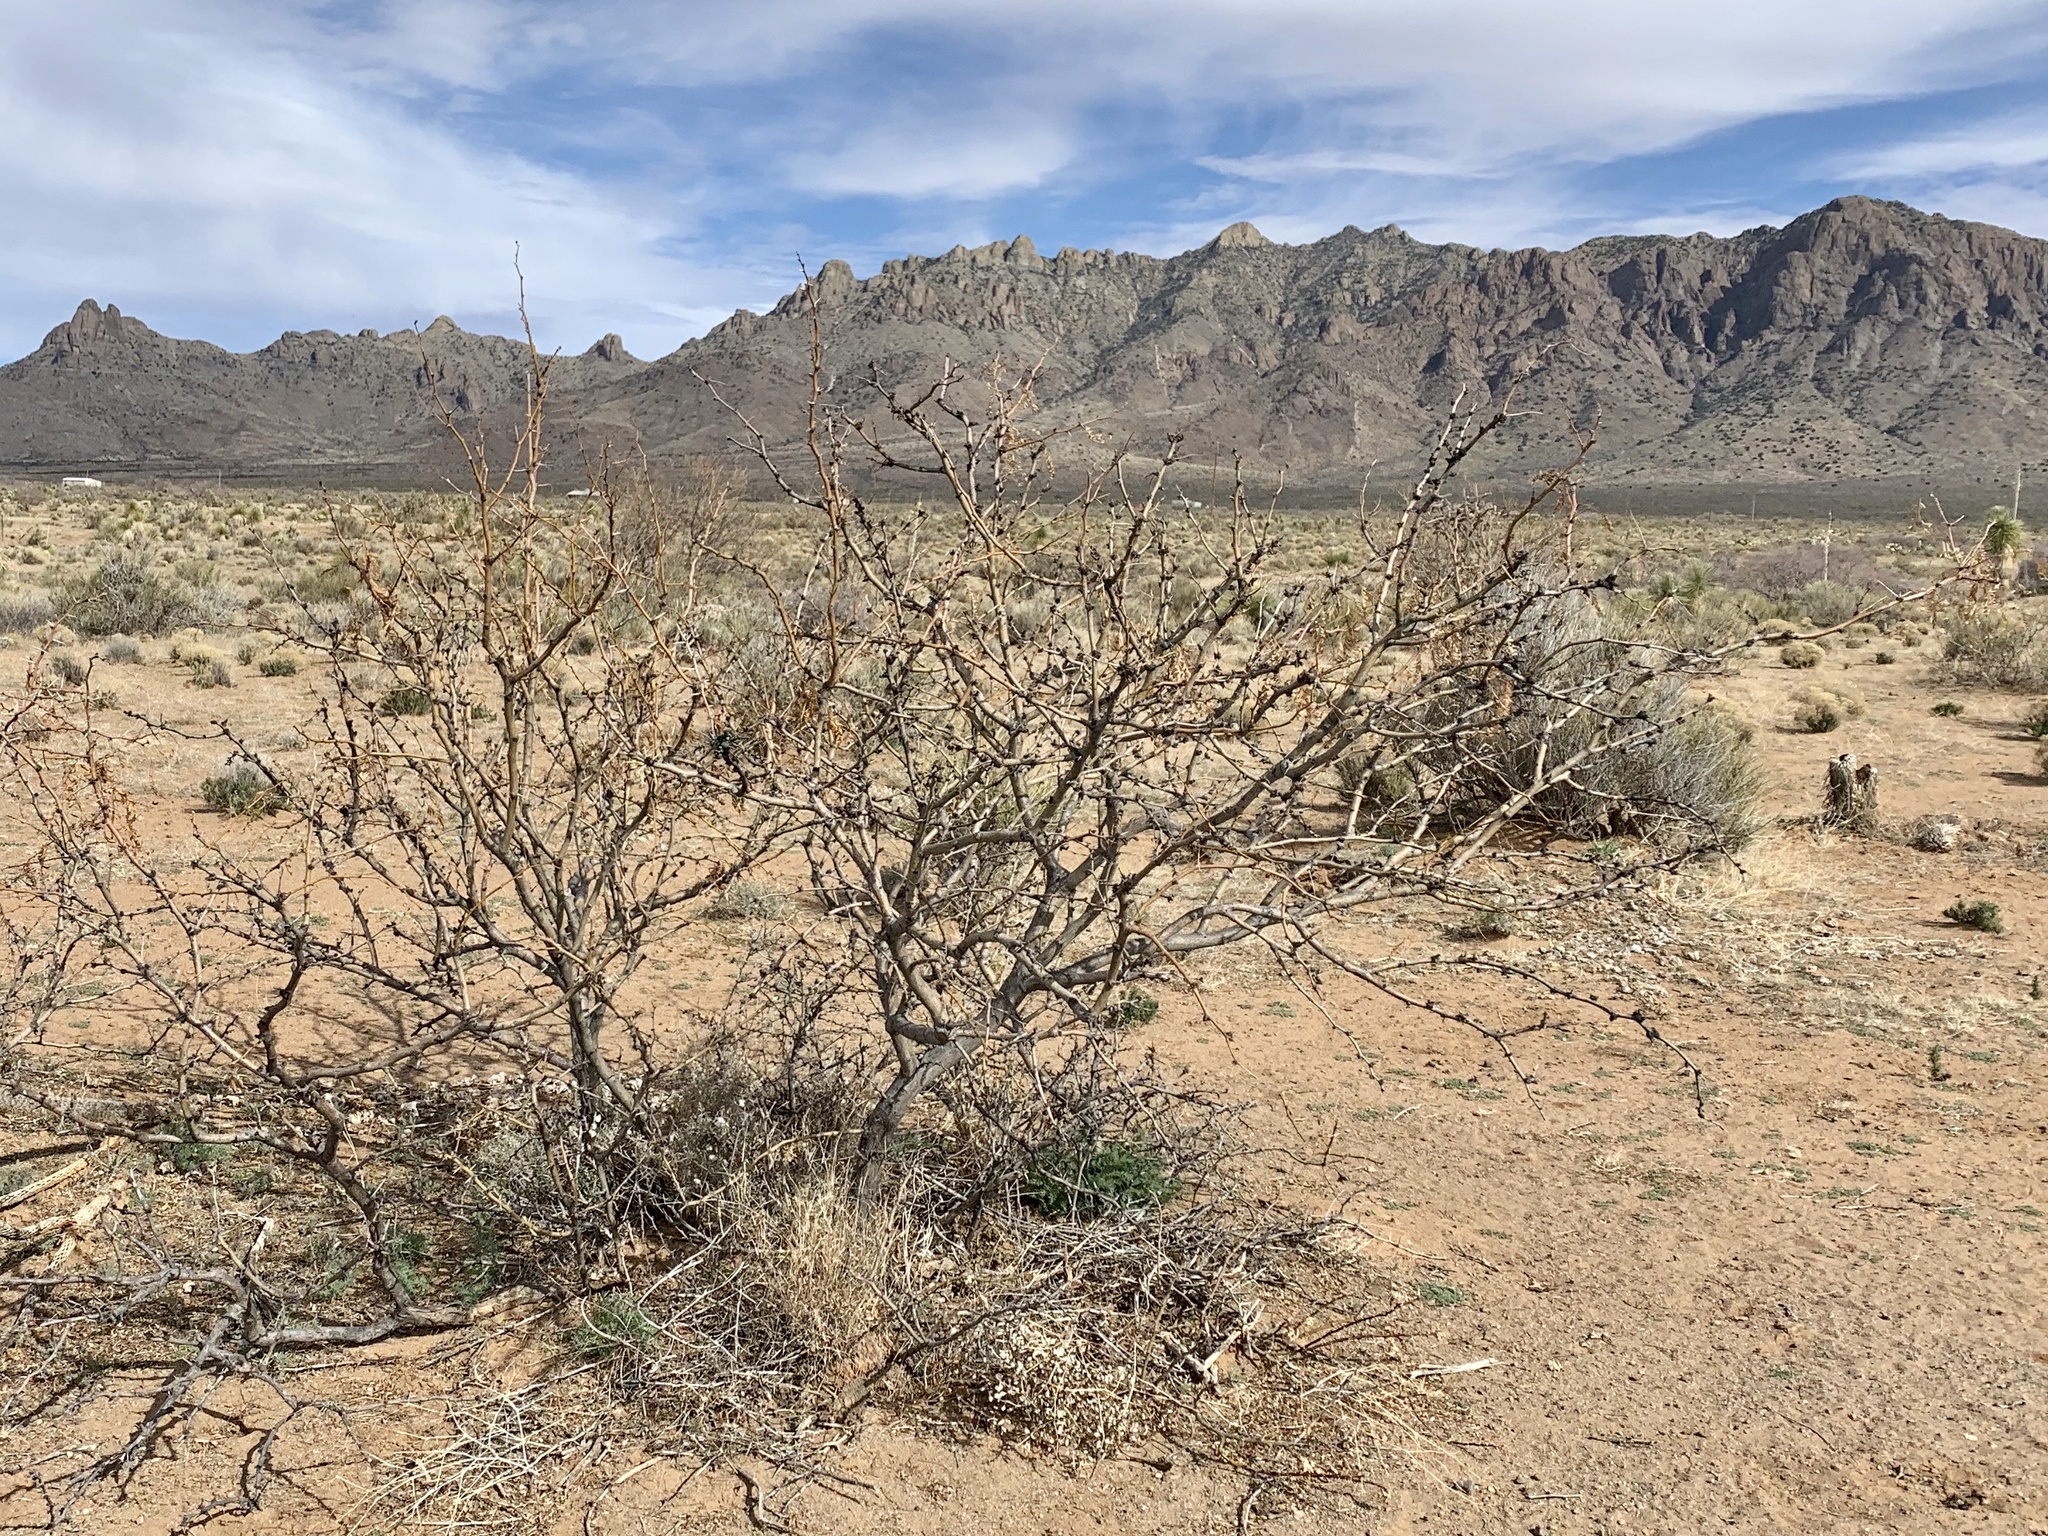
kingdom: Plantae
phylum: Tracheophyta
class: Magnoliopsida
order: Fabales
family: Fabaceae
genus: Prosopis
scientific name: Prosopis glandulosa
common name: Honey mesquite
